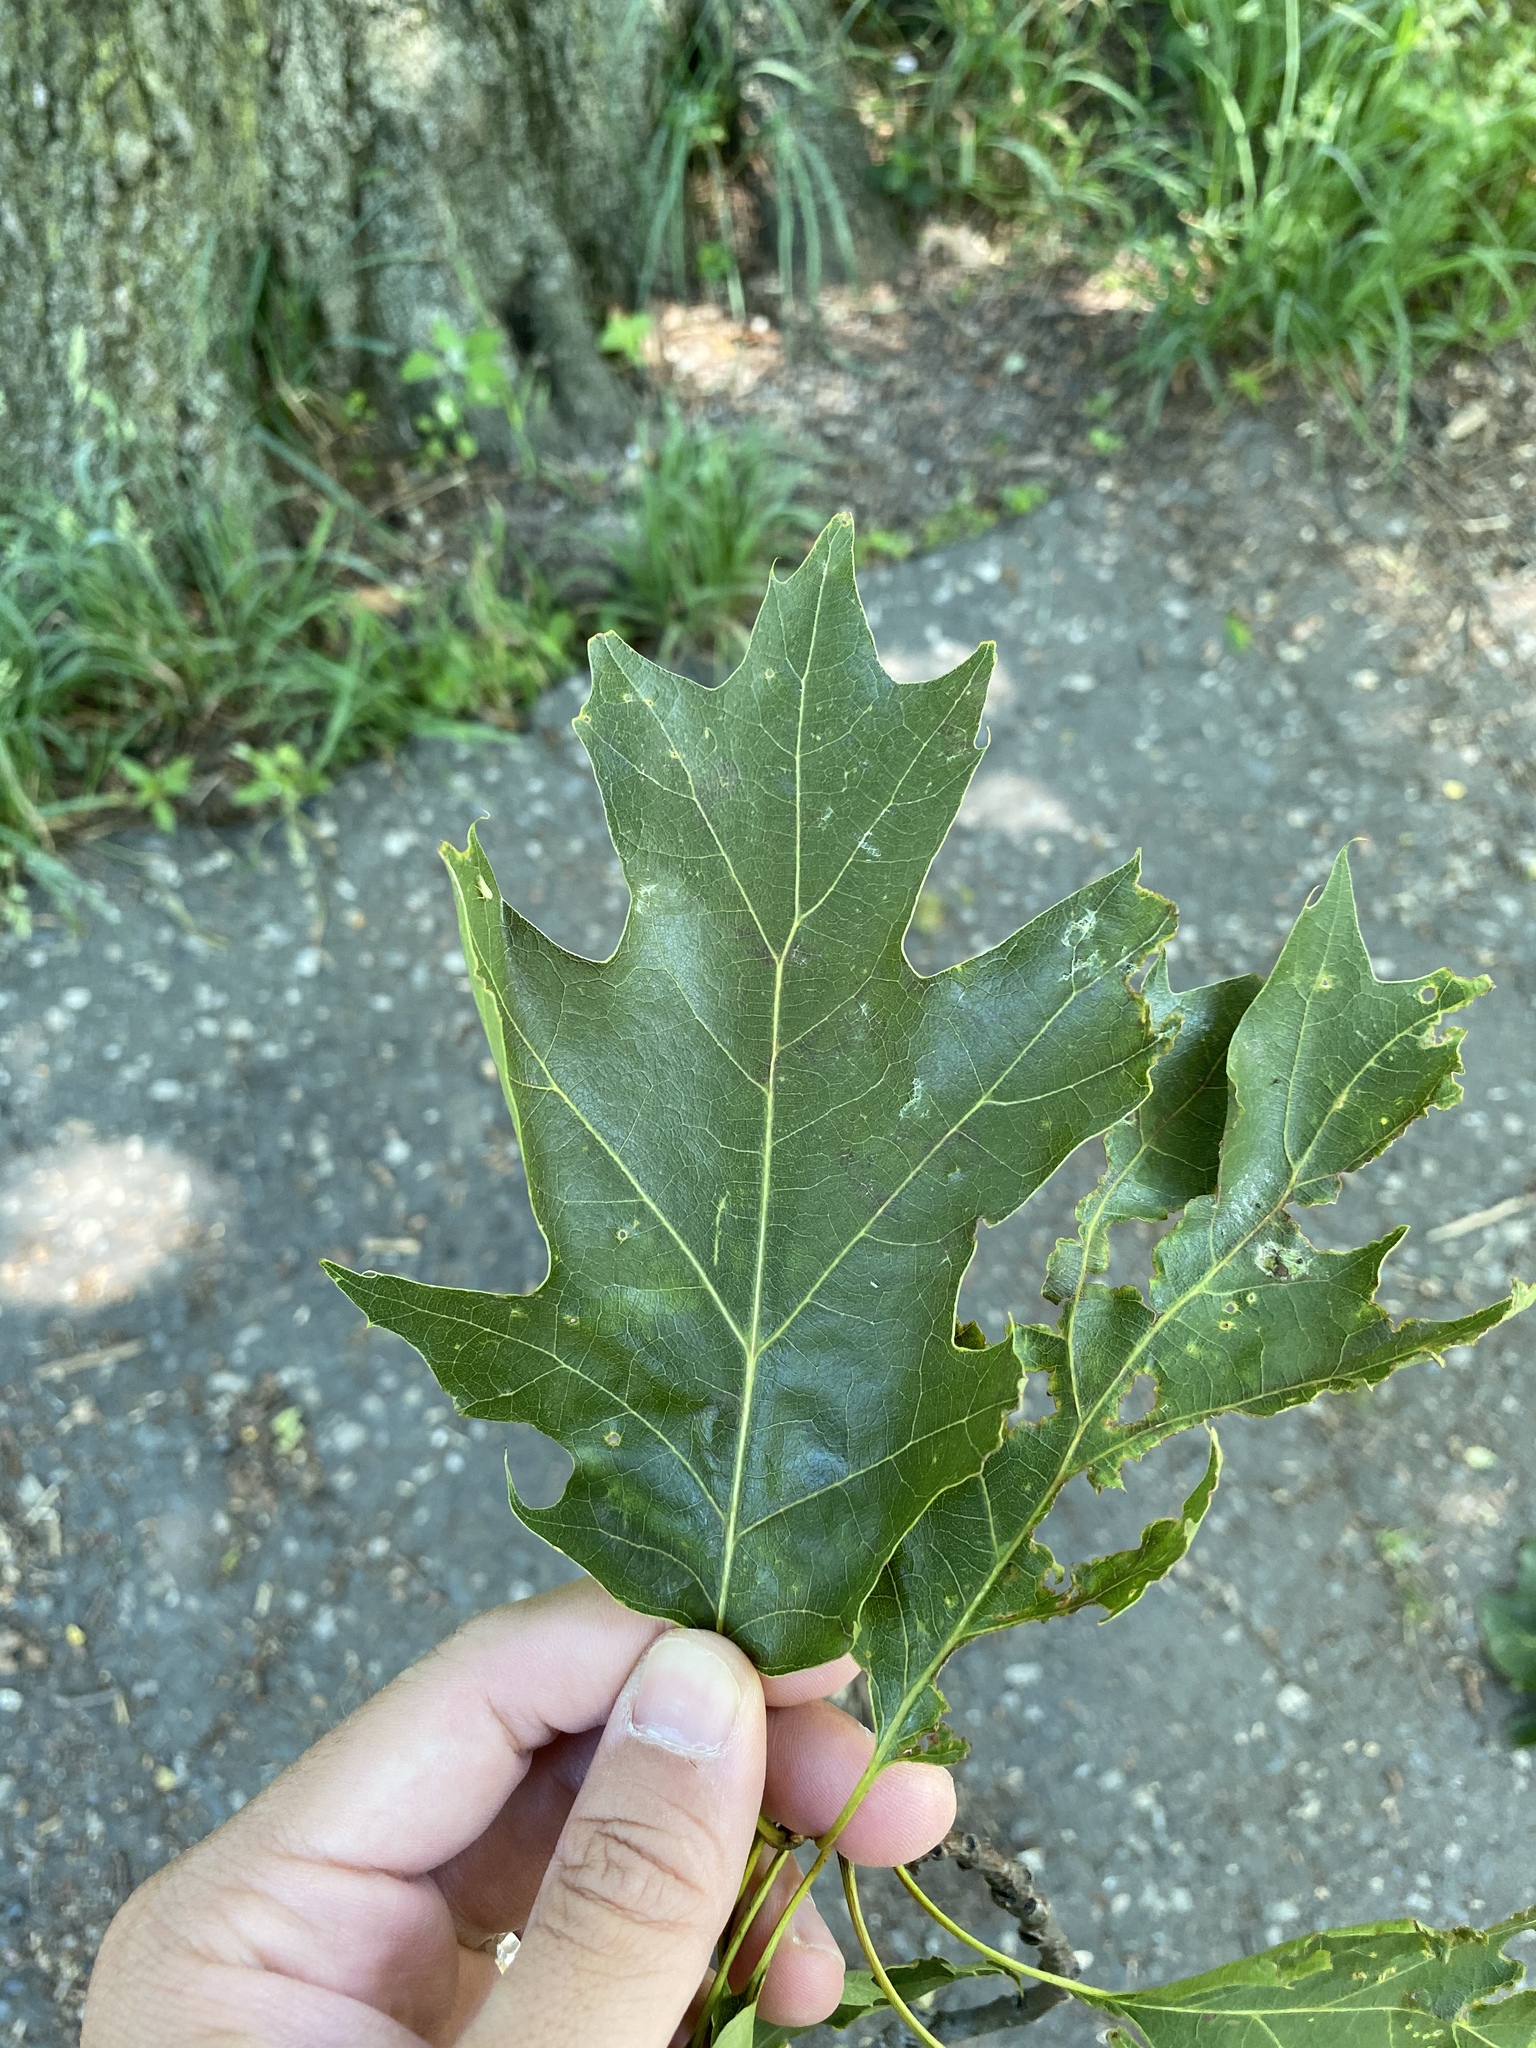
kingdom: Plantae
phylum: Tracheophyta
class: Magnoliopsida
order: Fagales
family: Fagaceae
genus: Quercus
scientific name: Quercus rubra
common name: Red oak
